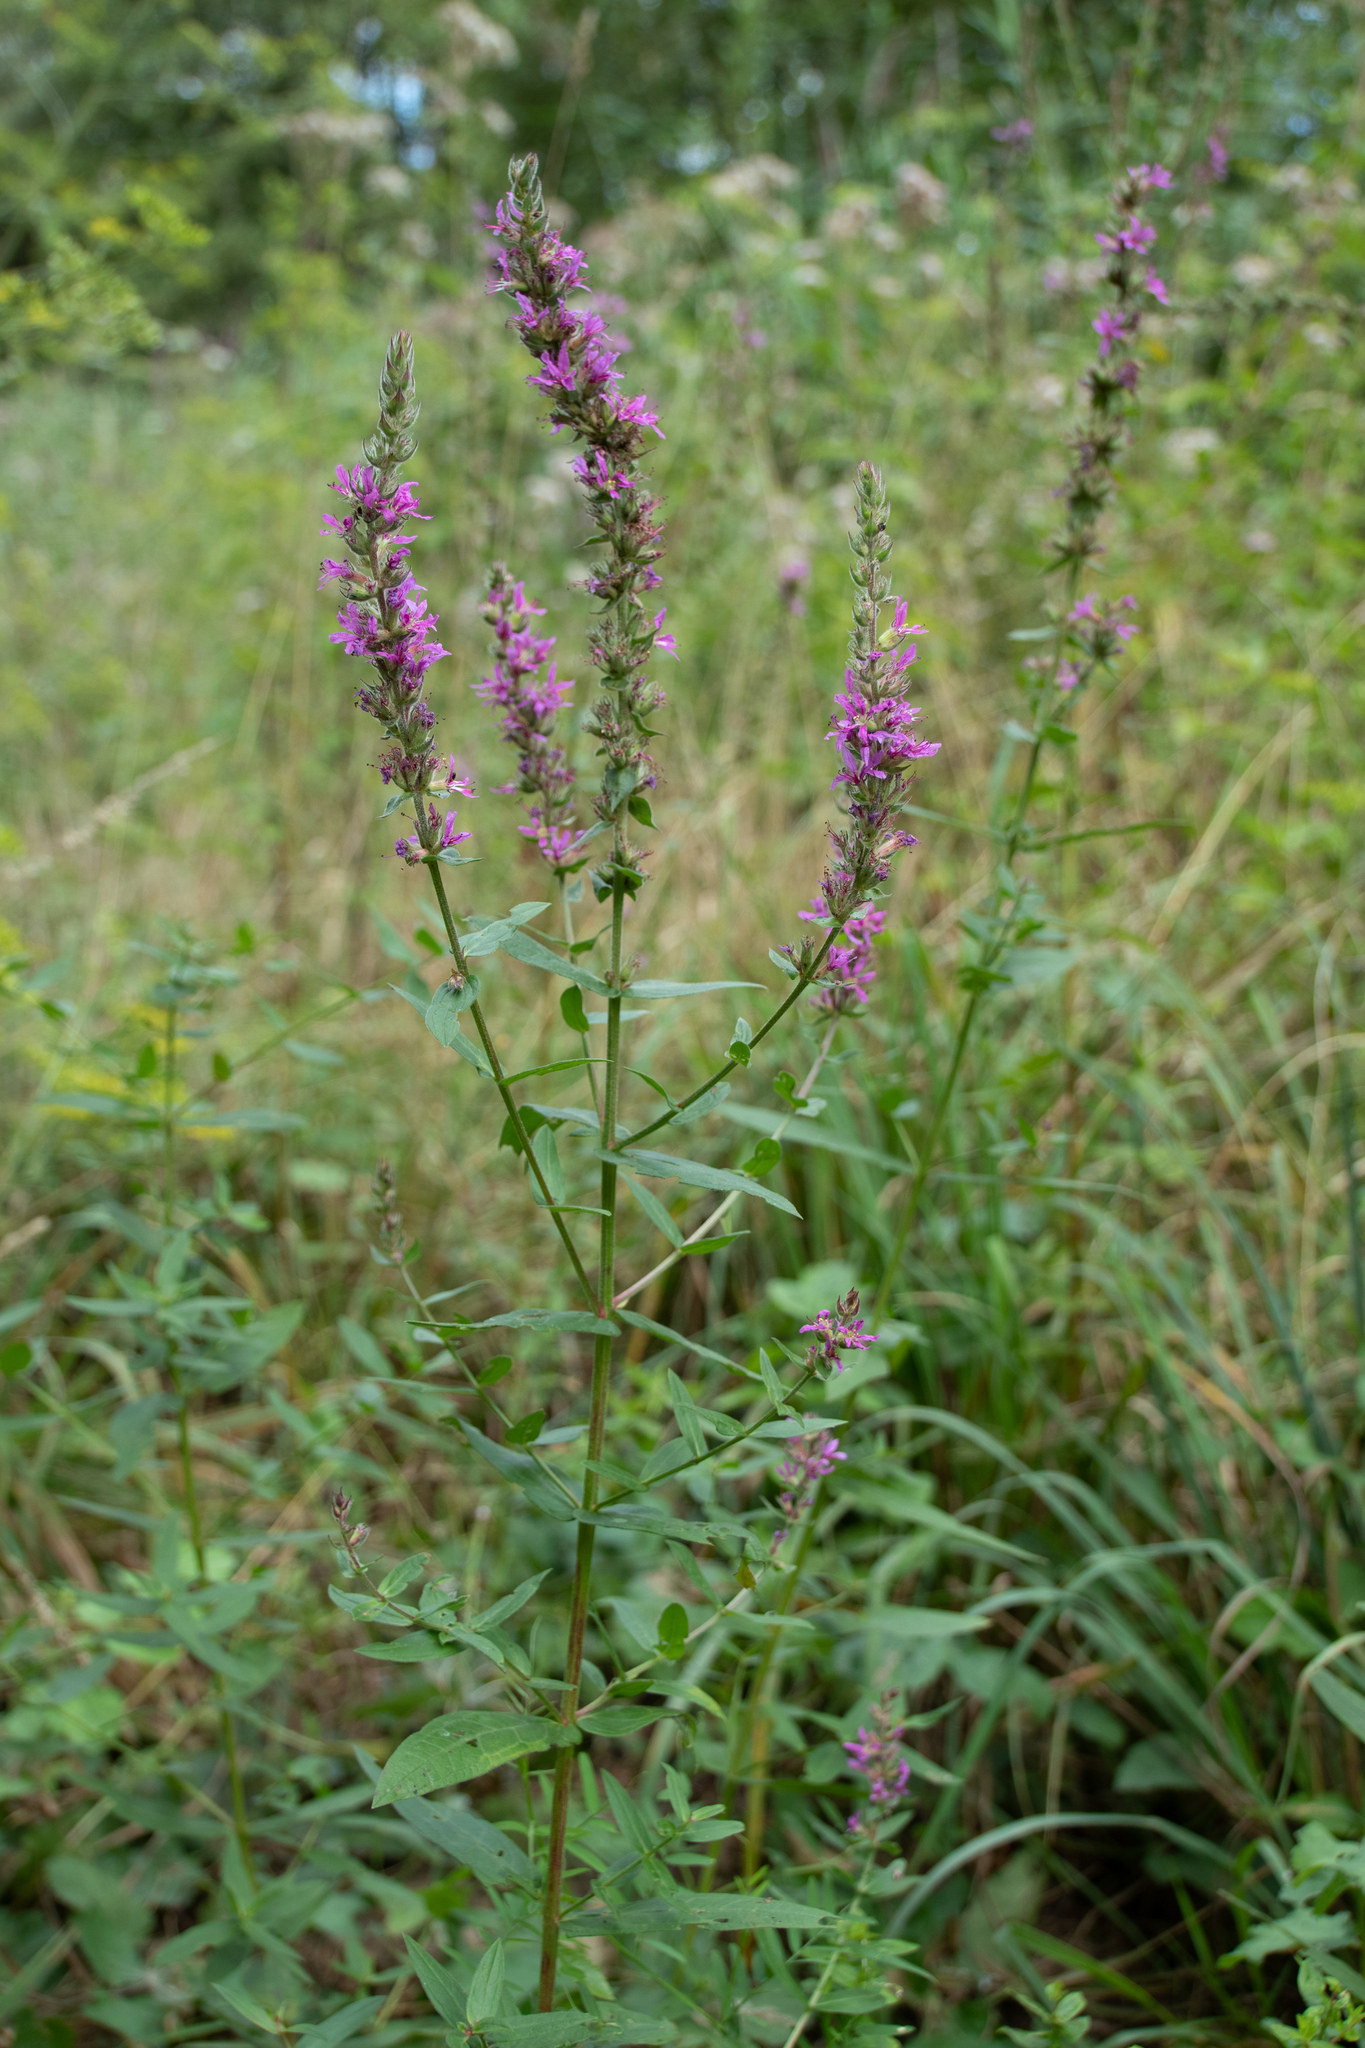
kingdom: Plantae
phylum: Tracheophyta
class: Magnoliopsida
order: Myrtales
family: Lythraceae
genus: Lythrum
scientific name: Lythrum salicaria
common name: Purple loosestrife
